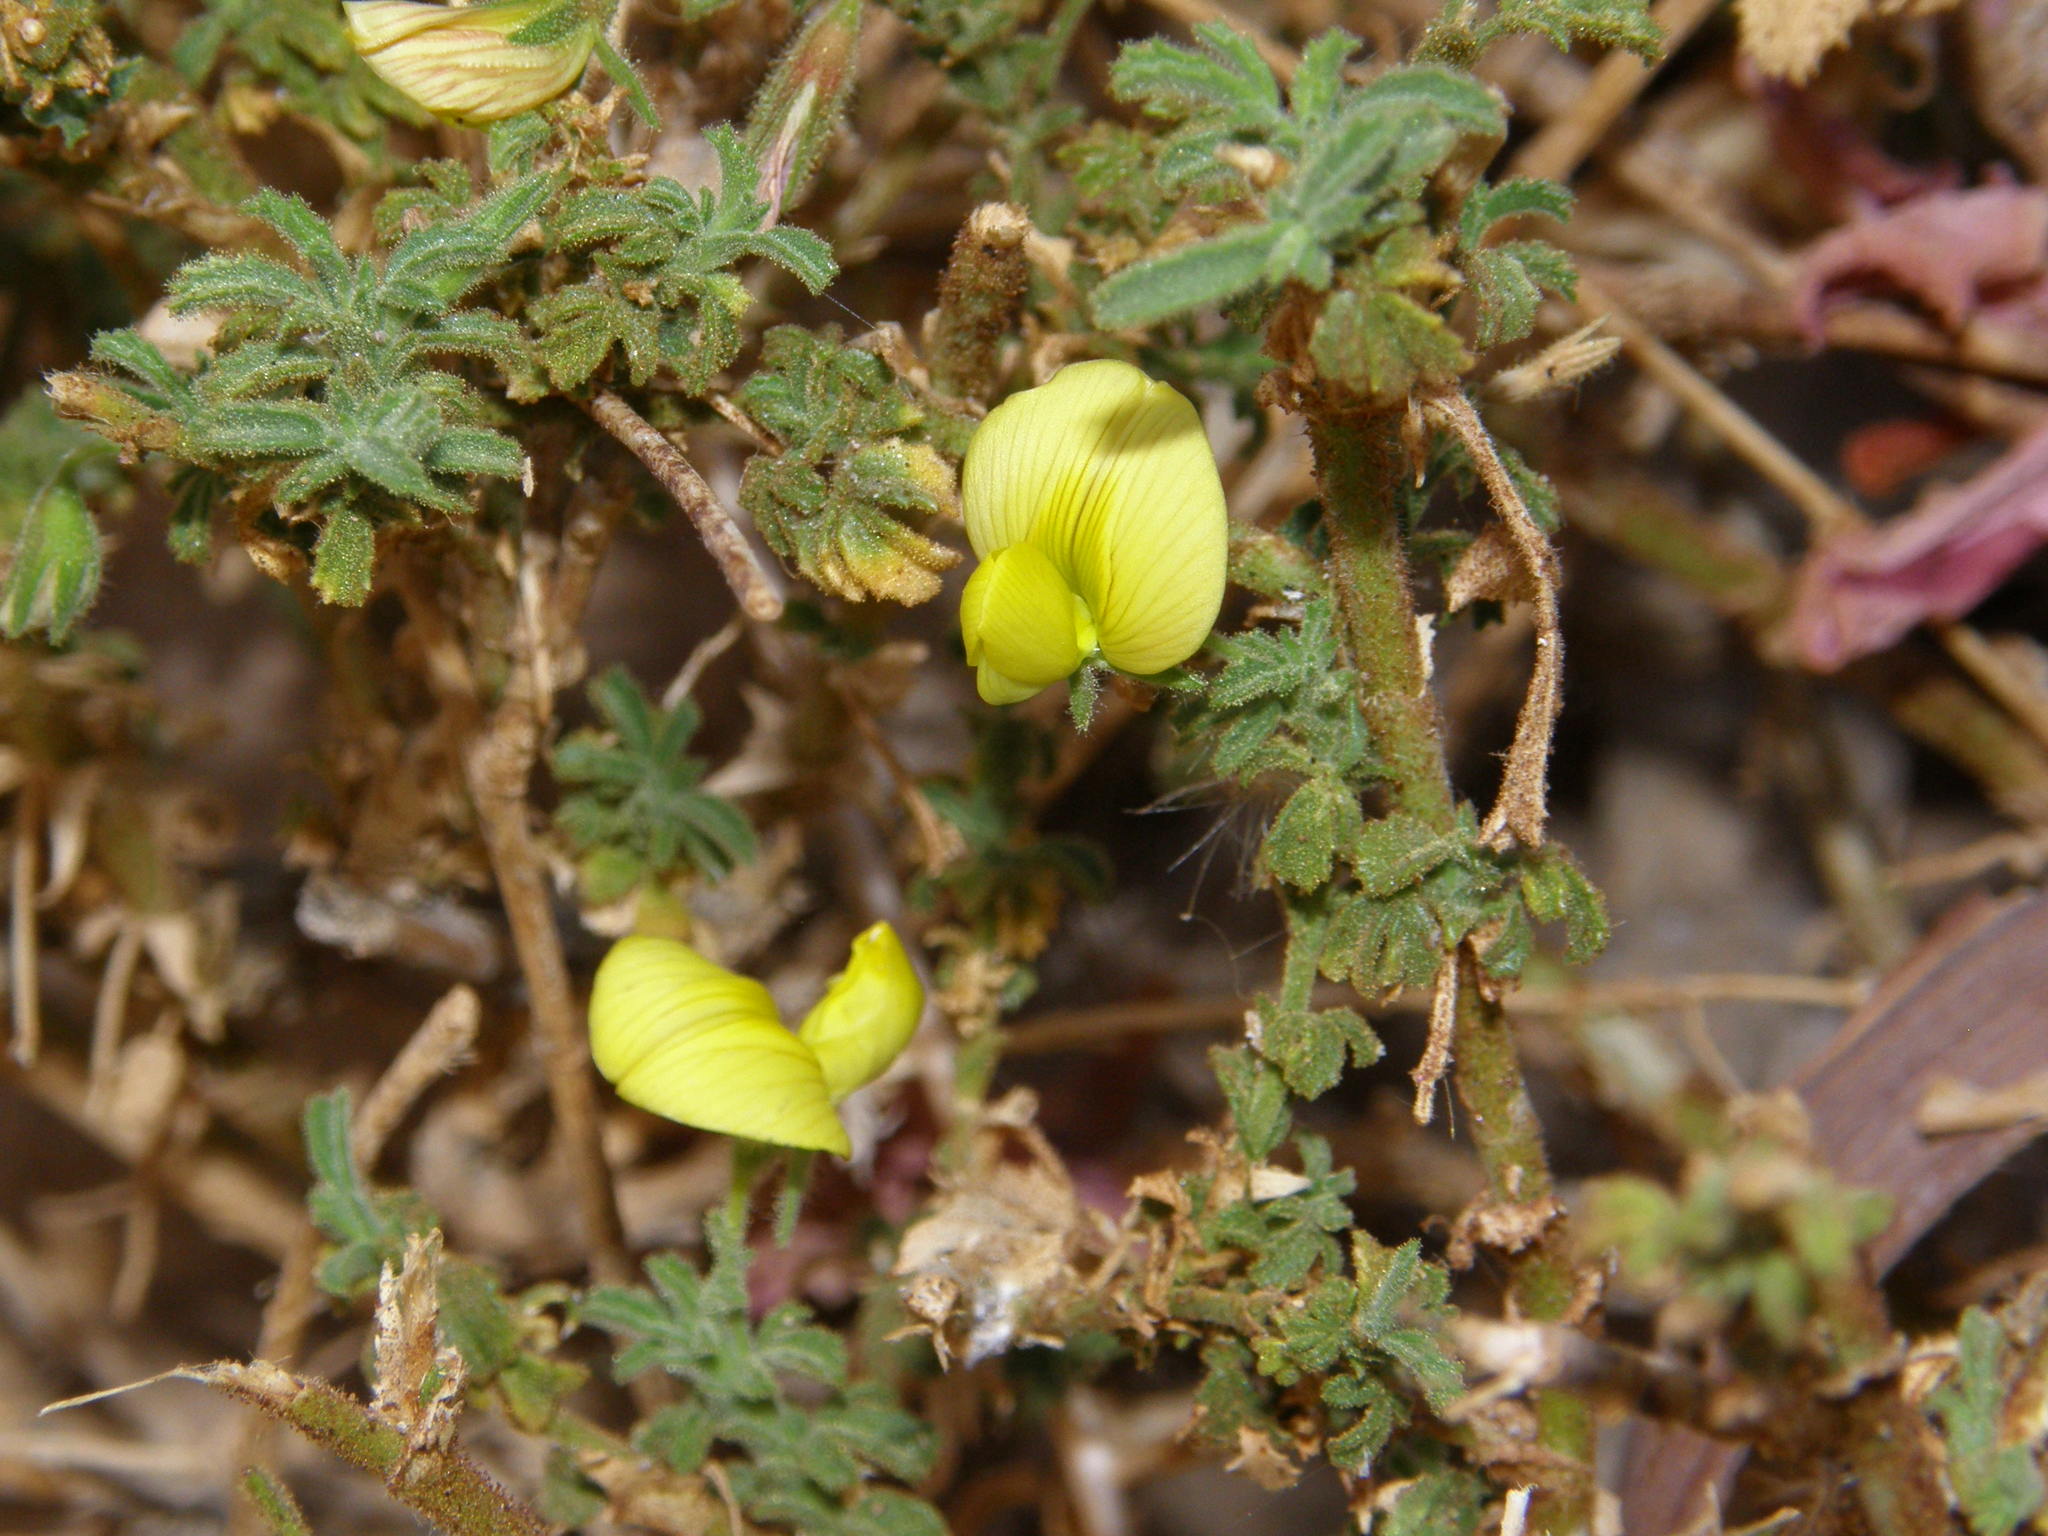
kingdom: Plantae
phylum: Tracheophyta
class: Magnoliopsida
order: Fabales
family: Fabaceae
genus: Ononis
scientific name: Ononis natrix
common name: Yellow restharrow
